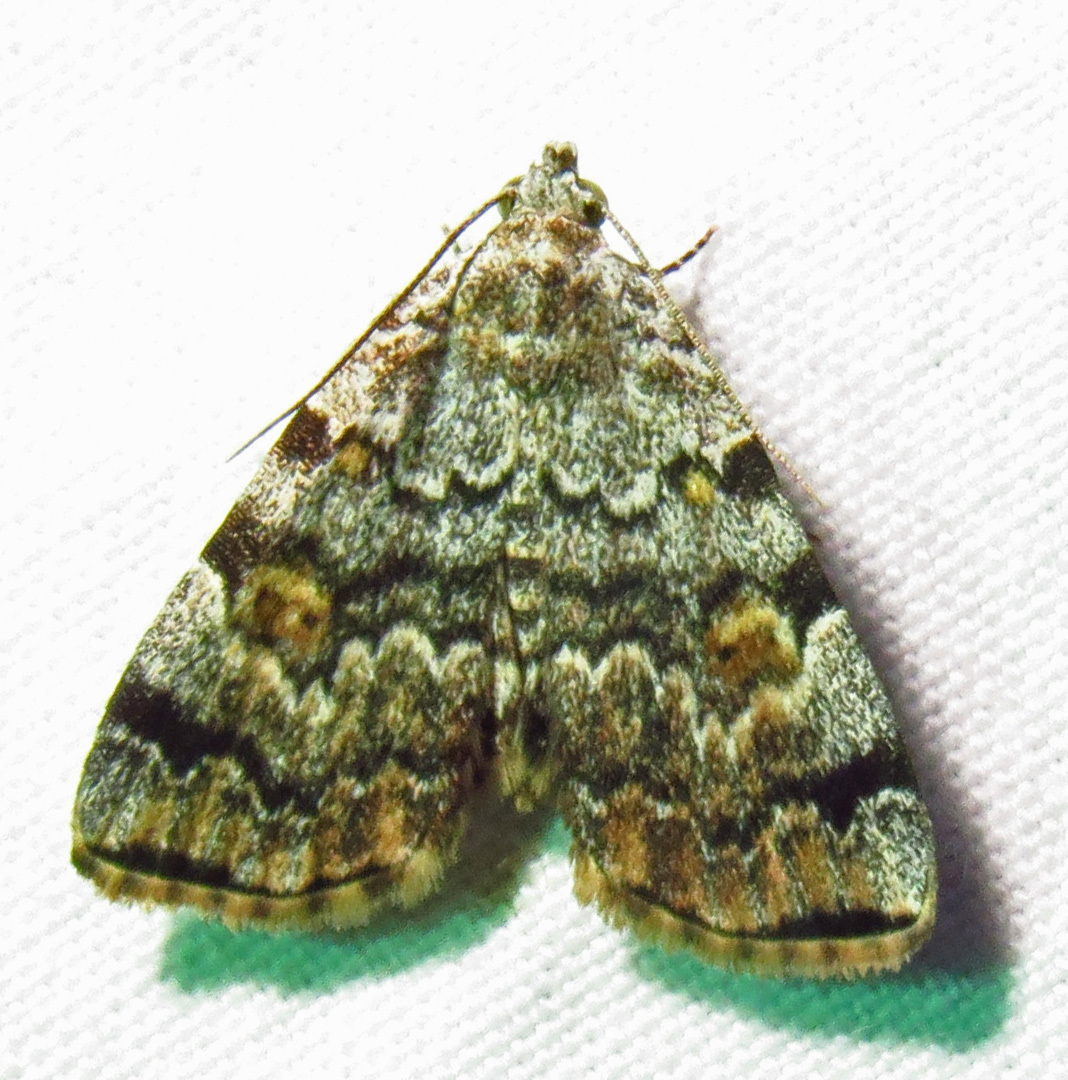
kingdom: Animalia
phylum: Arthropoda
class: Insecta
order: Lepidoptera
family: Erebidae
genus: Idia
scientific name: Idia americalis
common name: American idia moth
